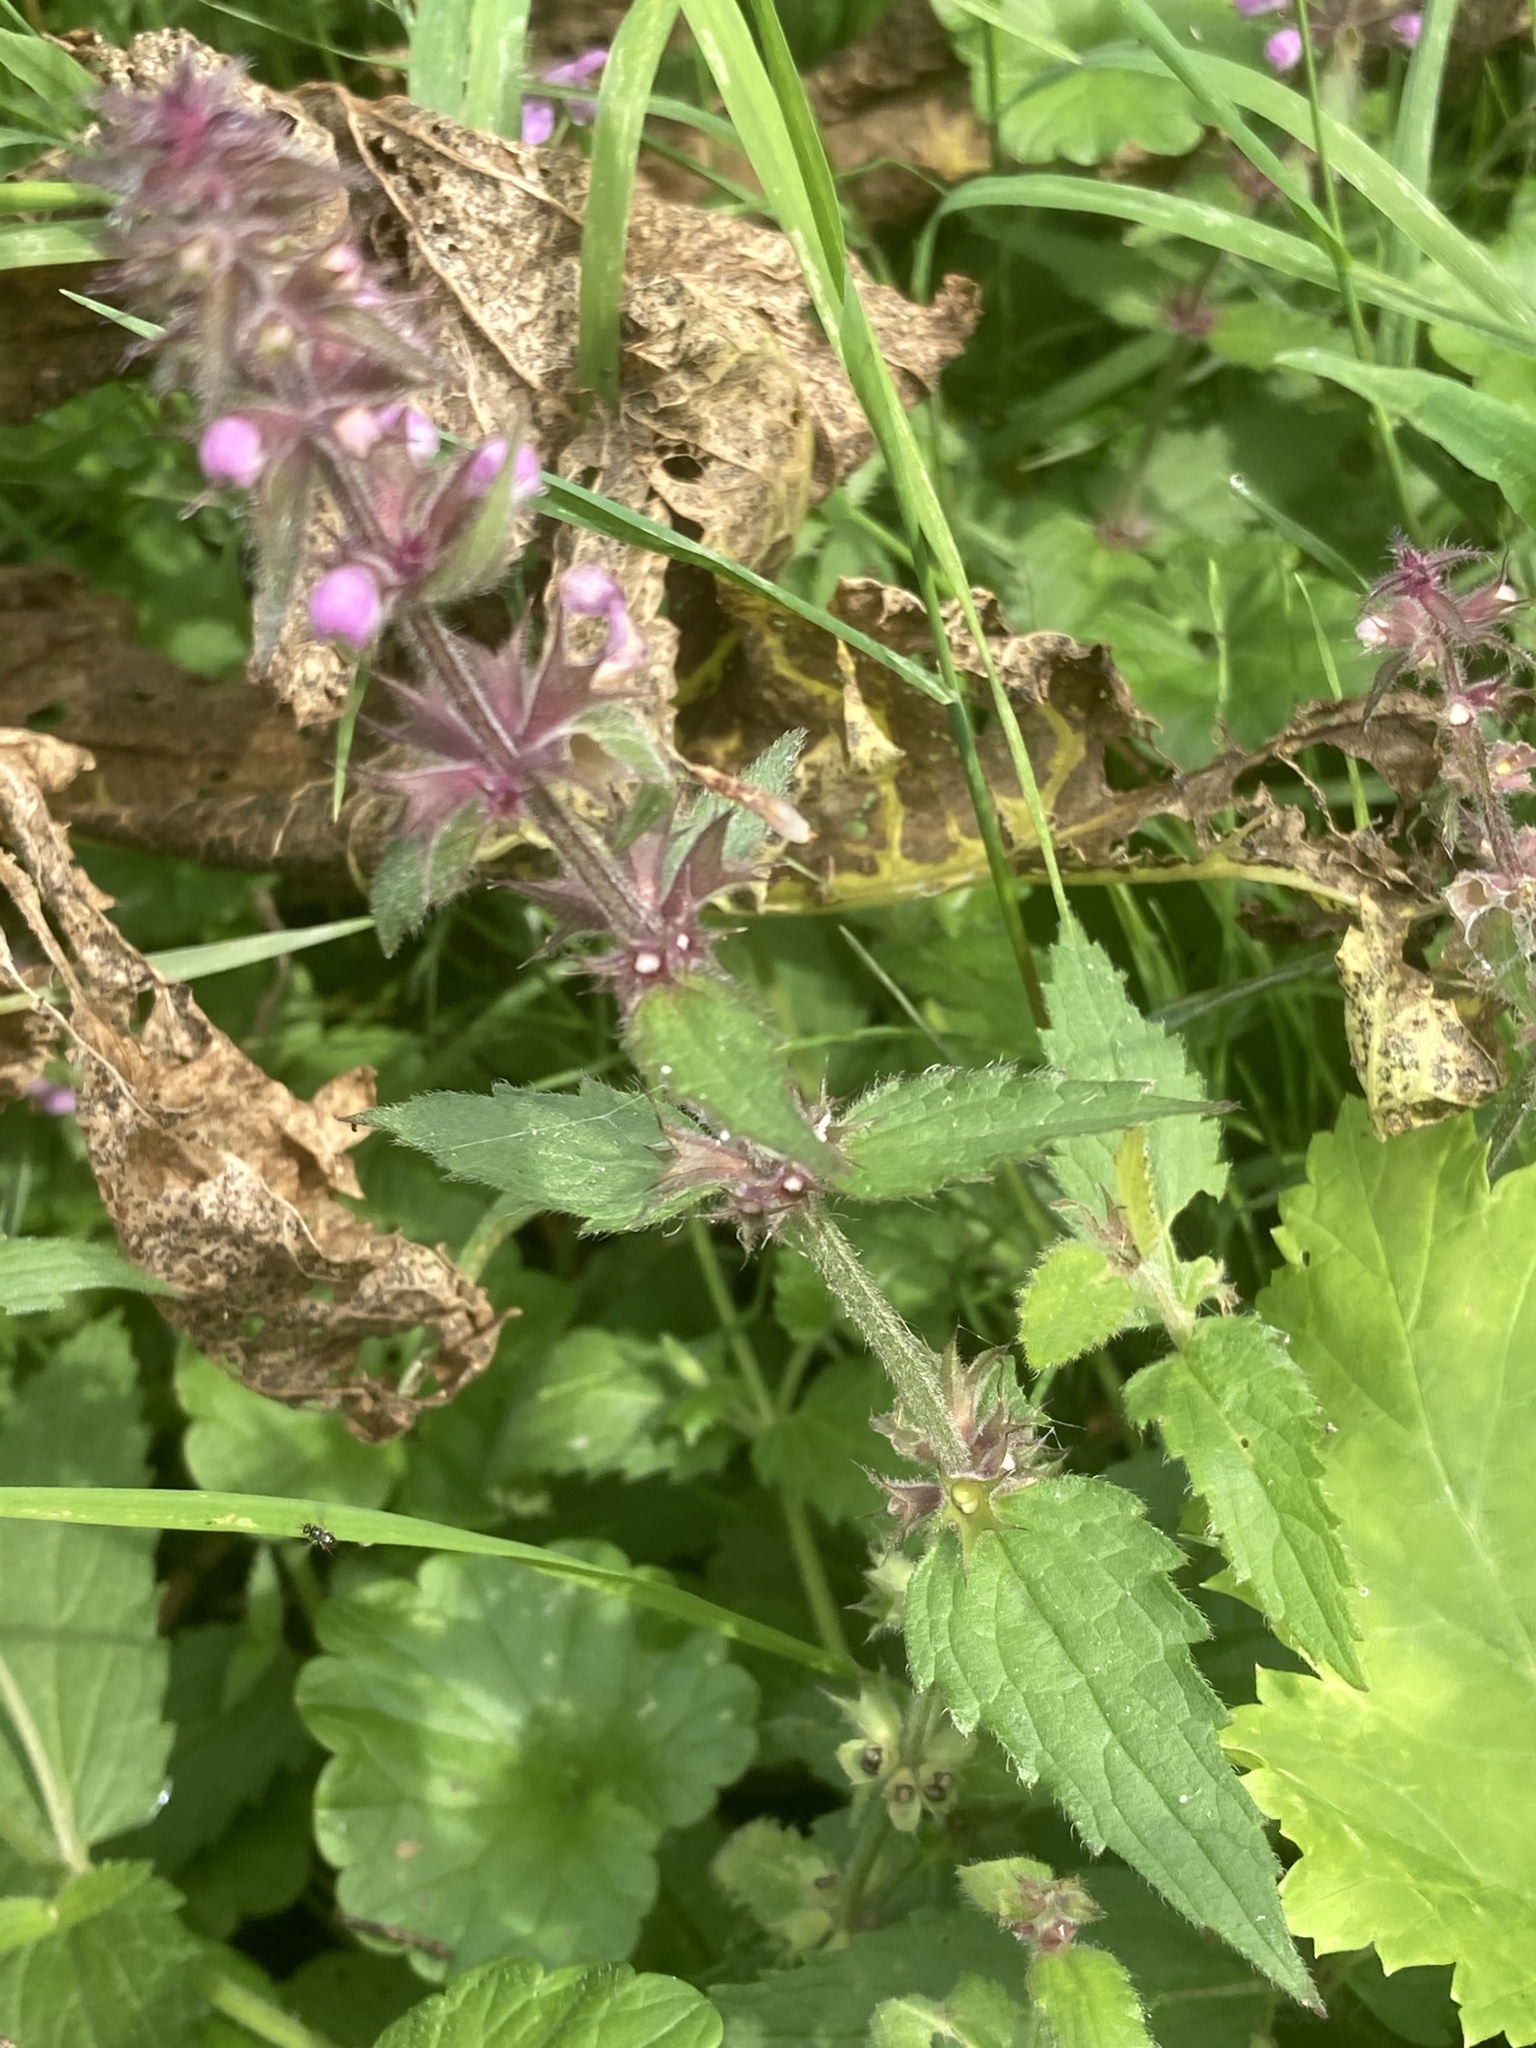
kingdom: Plantae
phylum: Tracheophyta
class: Magnoliopsida
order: Lamiales
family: Lamiaceae
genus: Stachys
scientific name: Stachys sylvatica
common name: Hedge woundwort
